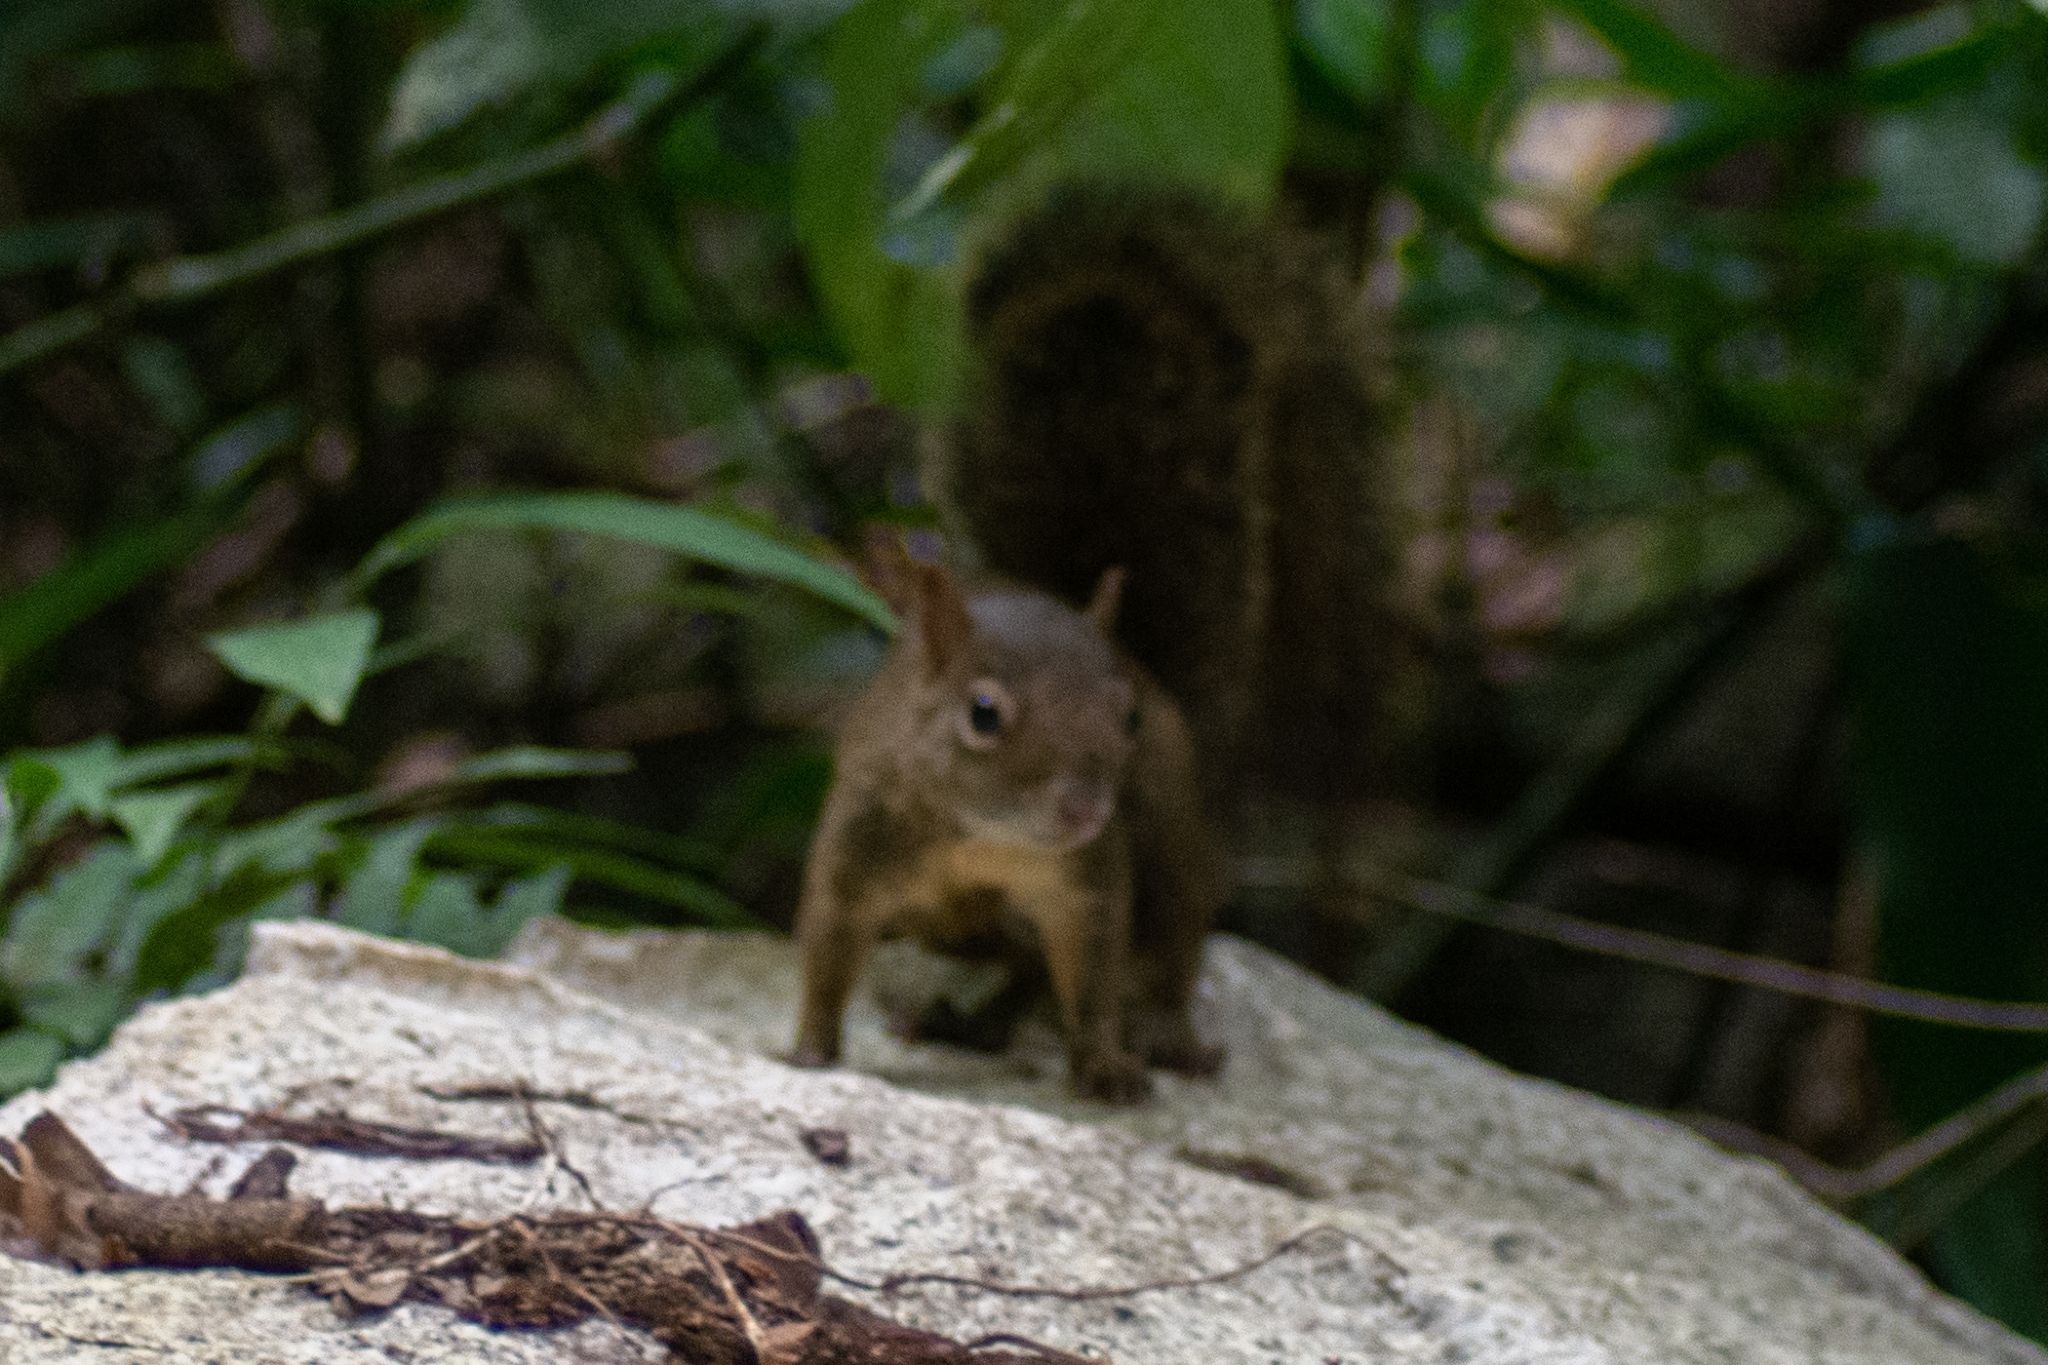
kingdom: Animalia
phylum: Chordata
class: Mammalia
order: Rodentia
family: Sciuridae
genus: Sciurus
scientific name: Sciurus aestuans
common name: Guianan squirrel
